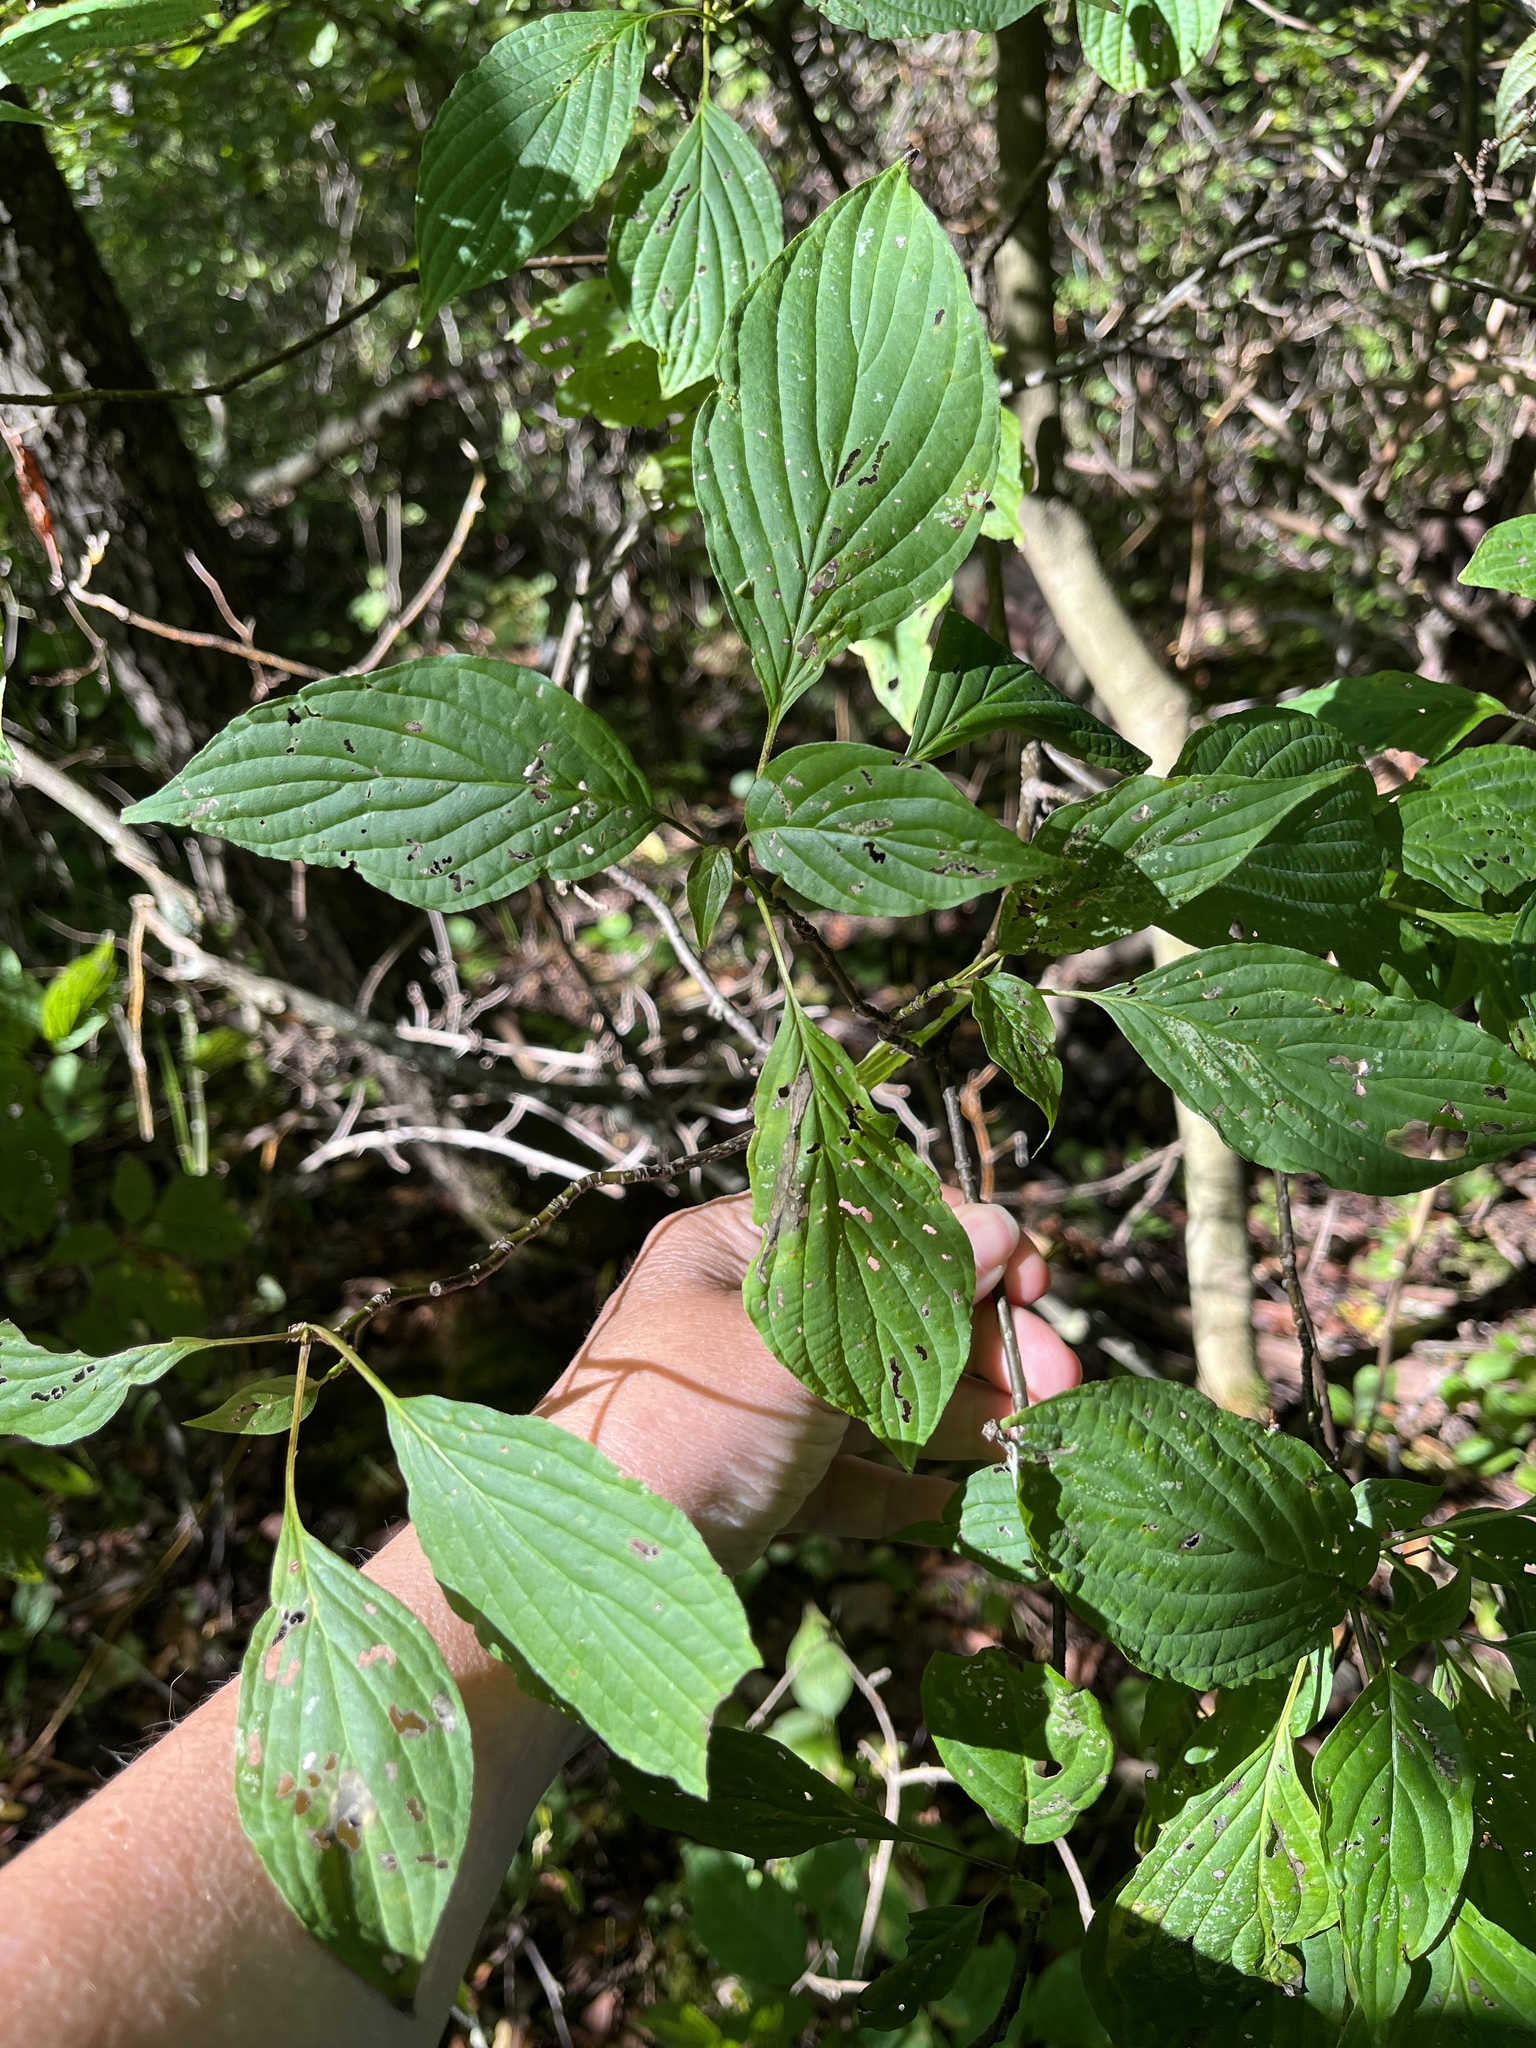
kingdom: Plantae
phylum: Tracheophyta
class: Magnoliopsida
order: Cornales
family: Cornaceae
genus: Cornus
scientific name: Cornus alternifolia
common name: Pagoda dogwood
